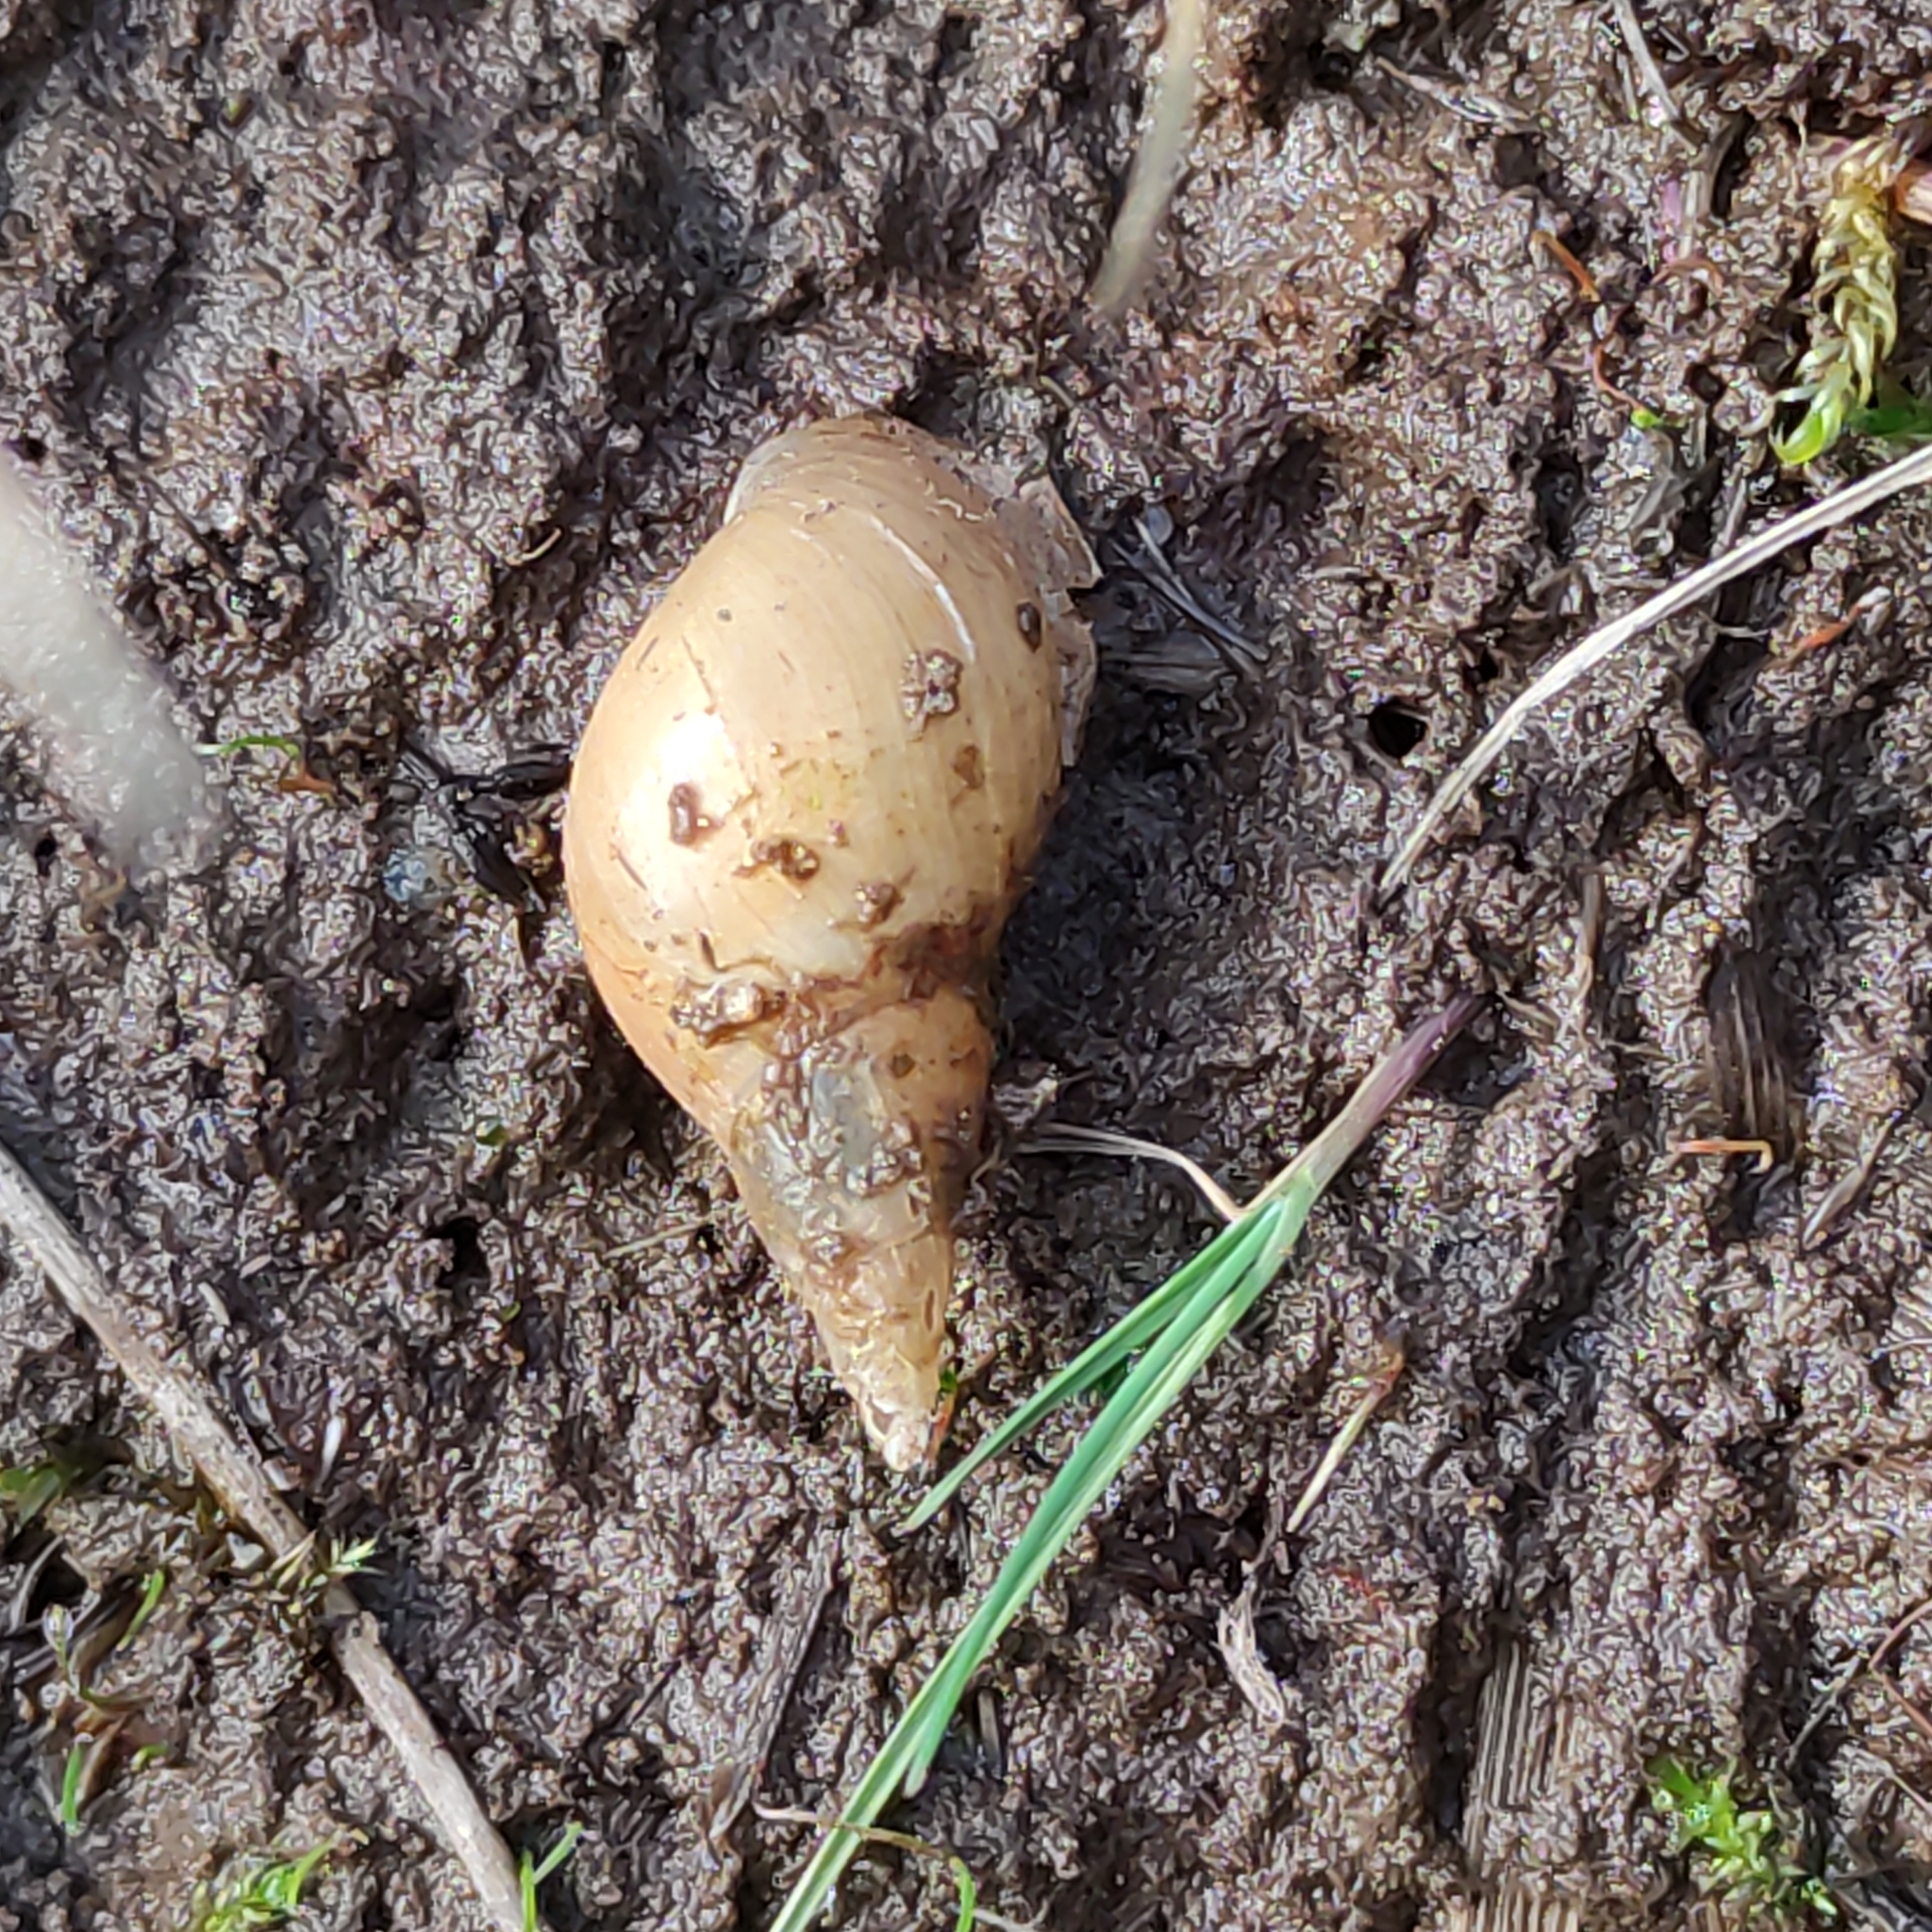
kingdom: Animalia
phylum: Mollusca
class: Gastropoda
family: Lymnaeidae
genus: Lymnaea
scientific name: Lymnaea stagnalis
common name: Great pond snail
